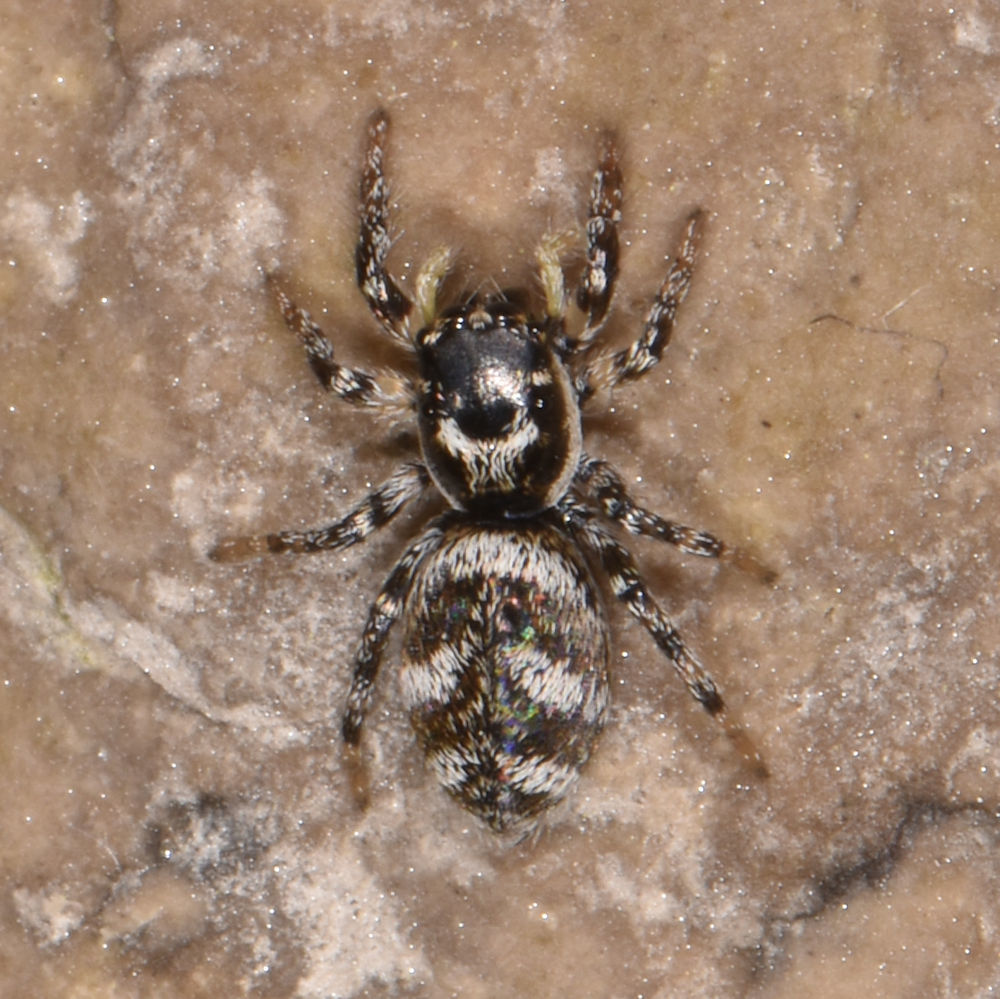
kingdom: Animalia
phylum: Arthropoda
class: Arachnida
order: Araneae
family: Salticidae
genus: Salticus
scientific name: Salticus scenicus
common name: Zebra jumper
